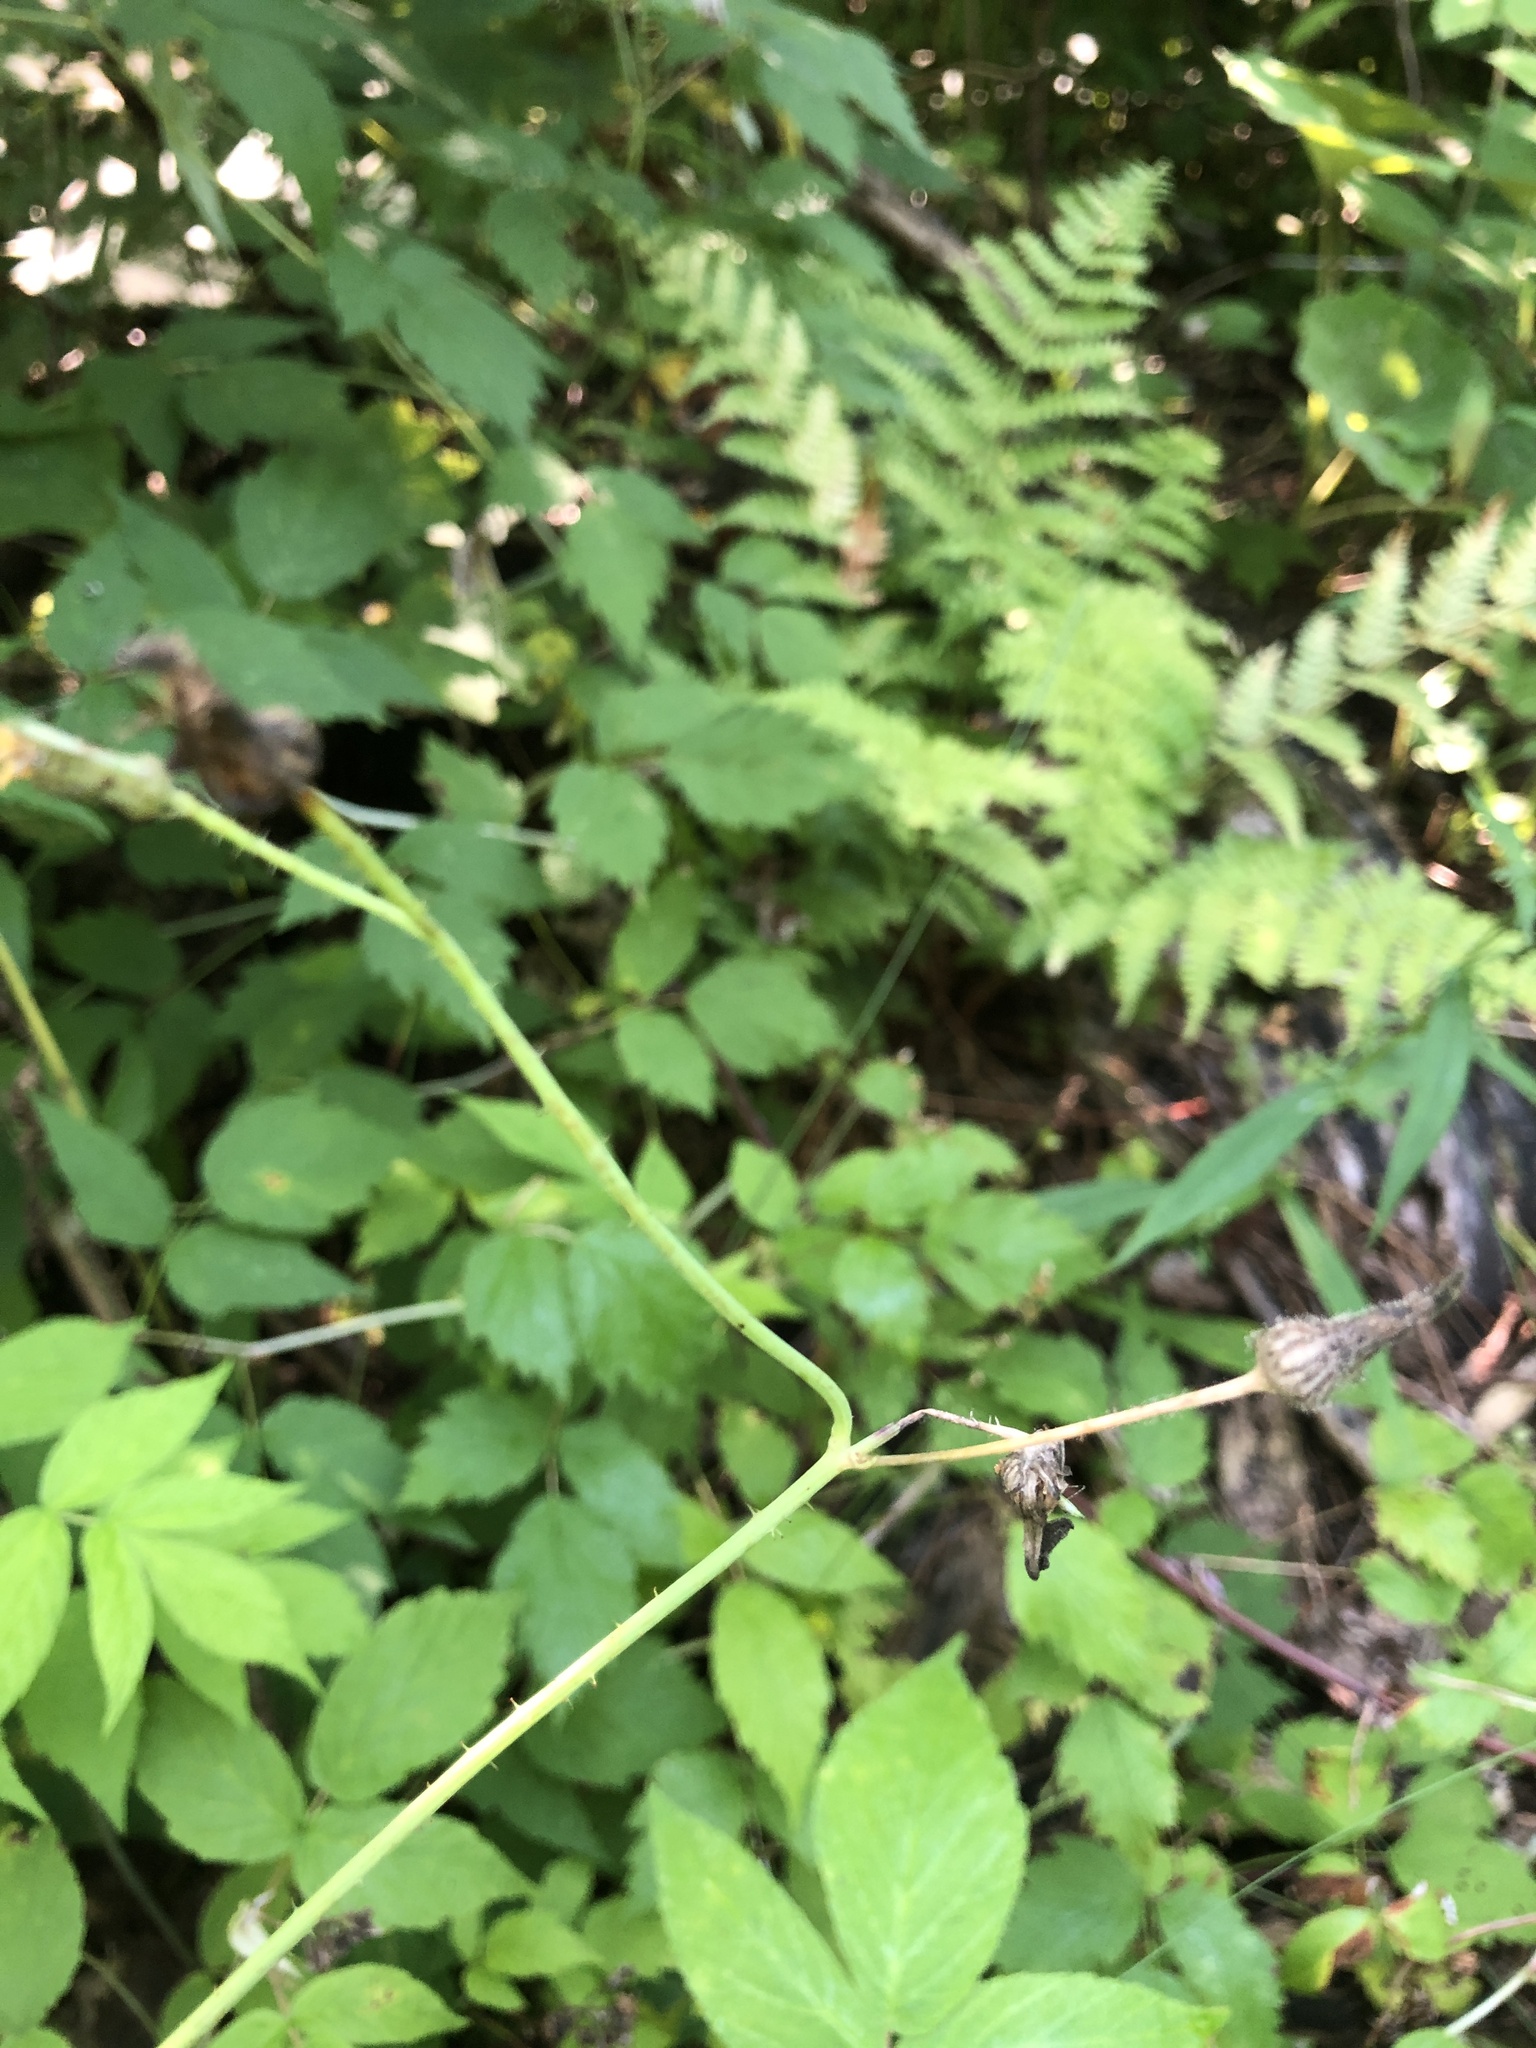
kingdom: Plantae
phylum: Tracheophyta
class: Magnoliopsida
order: Asterales
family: Asteraceae
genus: Sonchus
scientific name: Sonchus asper
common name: Prickly sow-thistle
